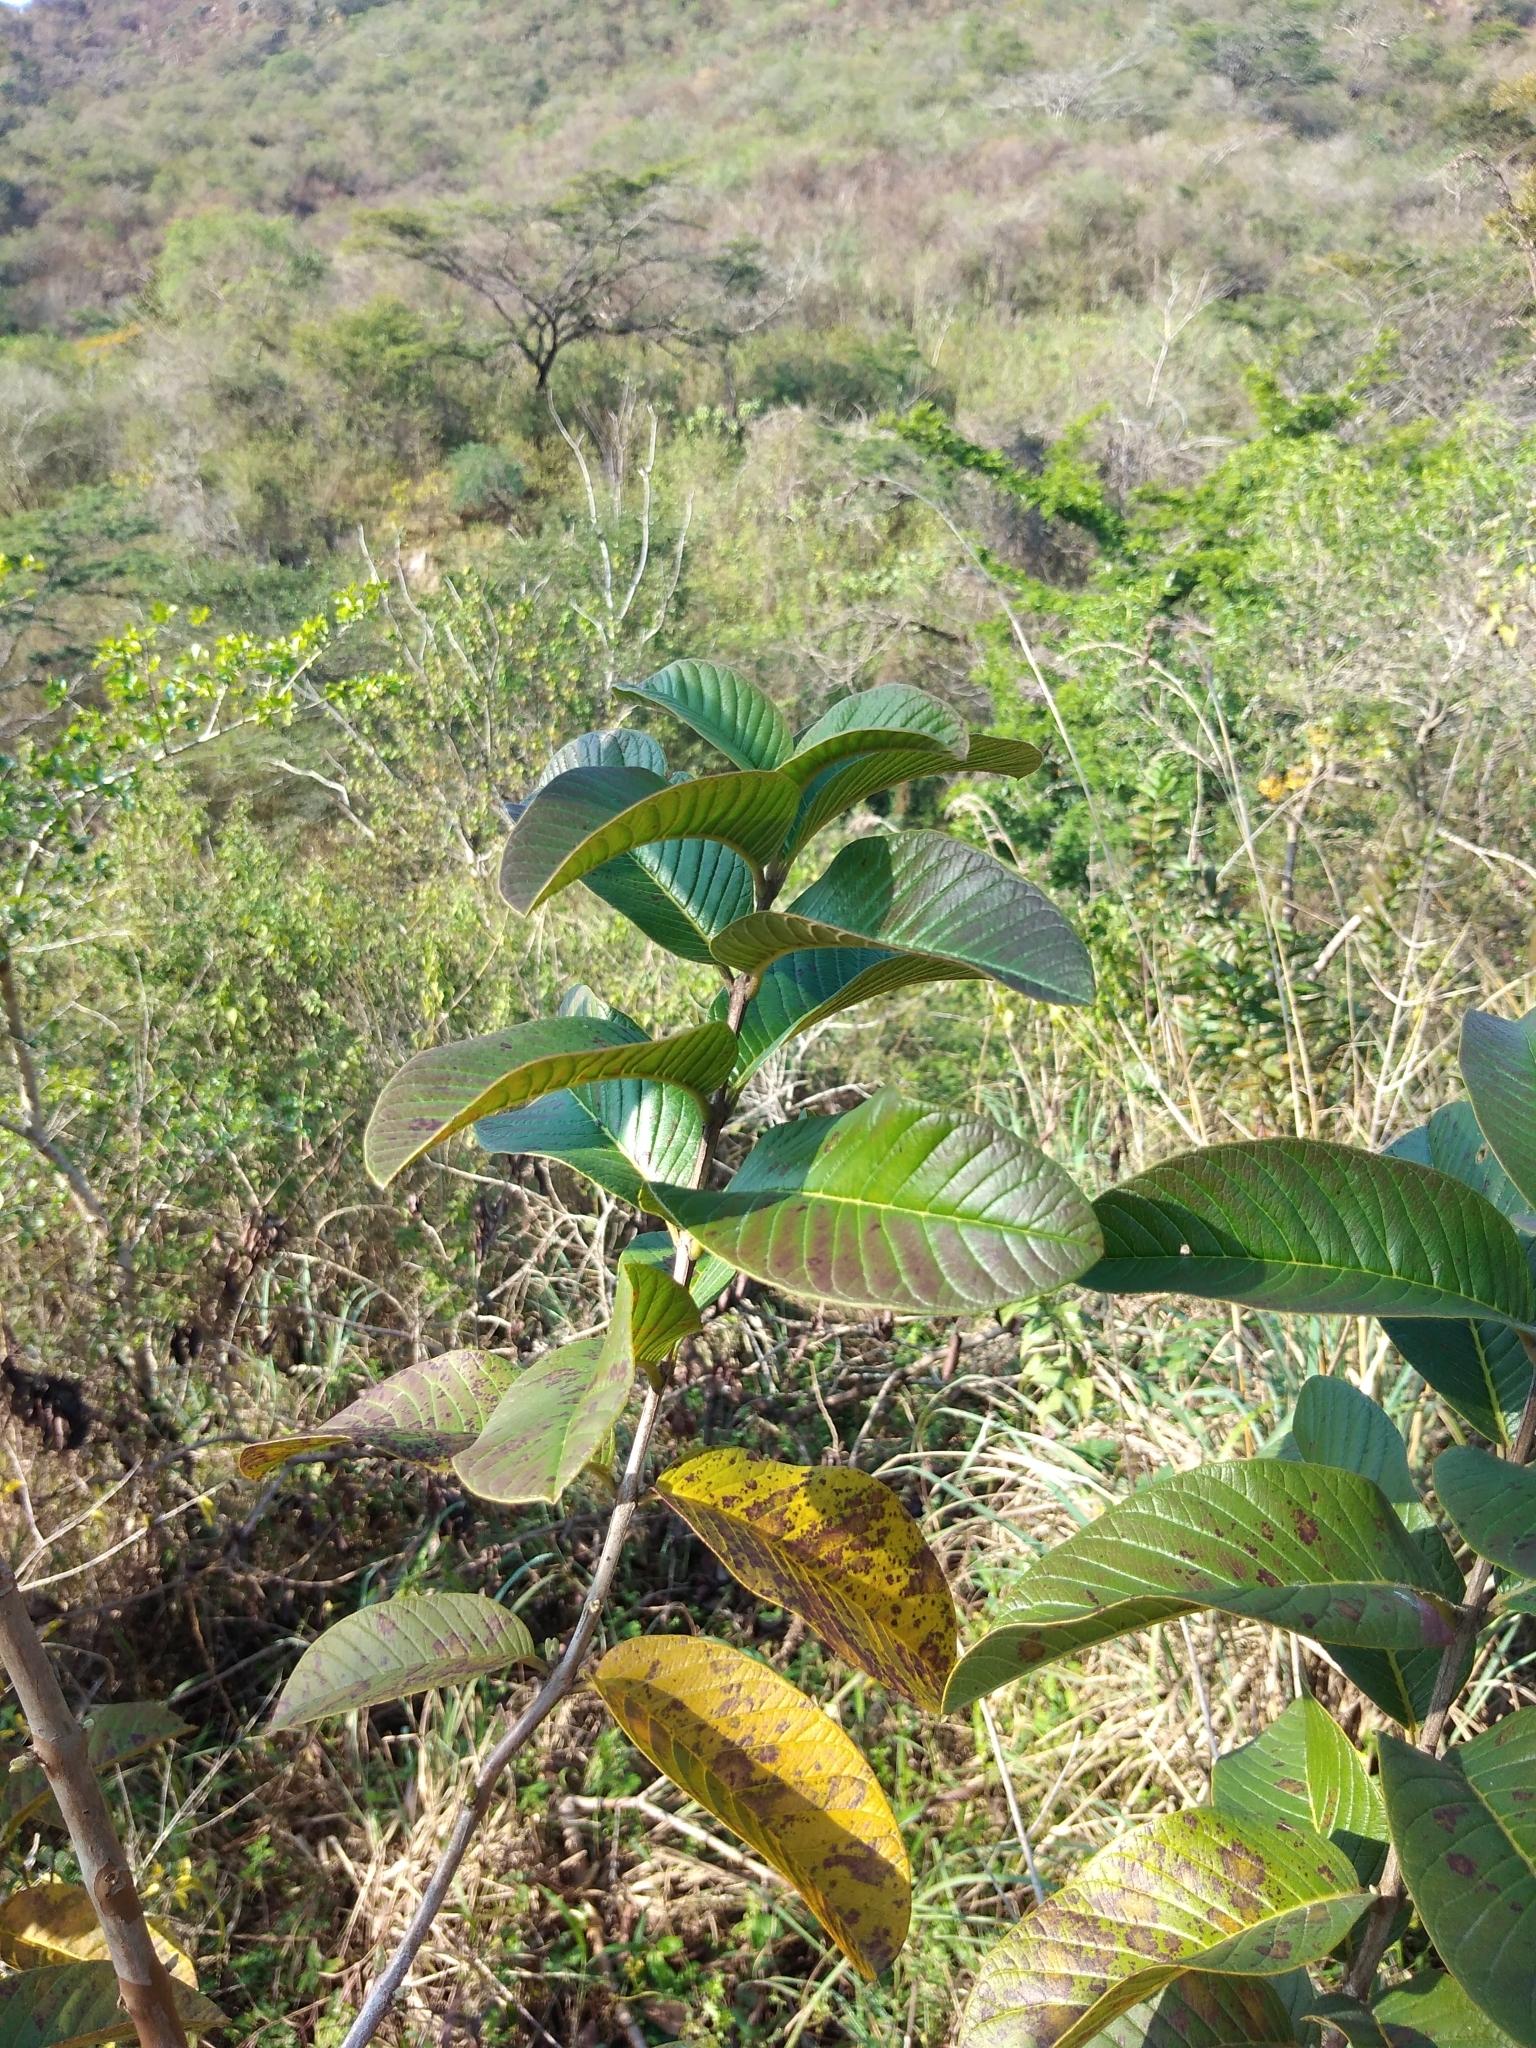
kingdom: Plantae
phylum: Tracheophyta
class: Magnoliopsida
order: Myrtales
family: Myrtaceae
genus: Psidium
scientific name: Psidium guajava
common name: Guava
